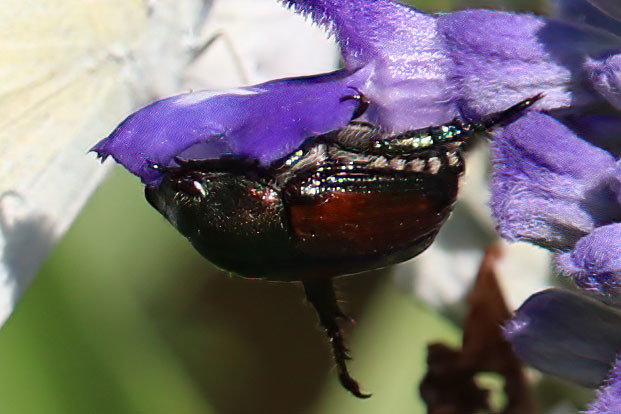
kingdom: Animalia
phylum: Arthropoda
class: Insecta
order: Coleoptera
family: Scarabaeidae
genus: Popillia
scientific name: Popillia japonica
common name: Japanese beetle
